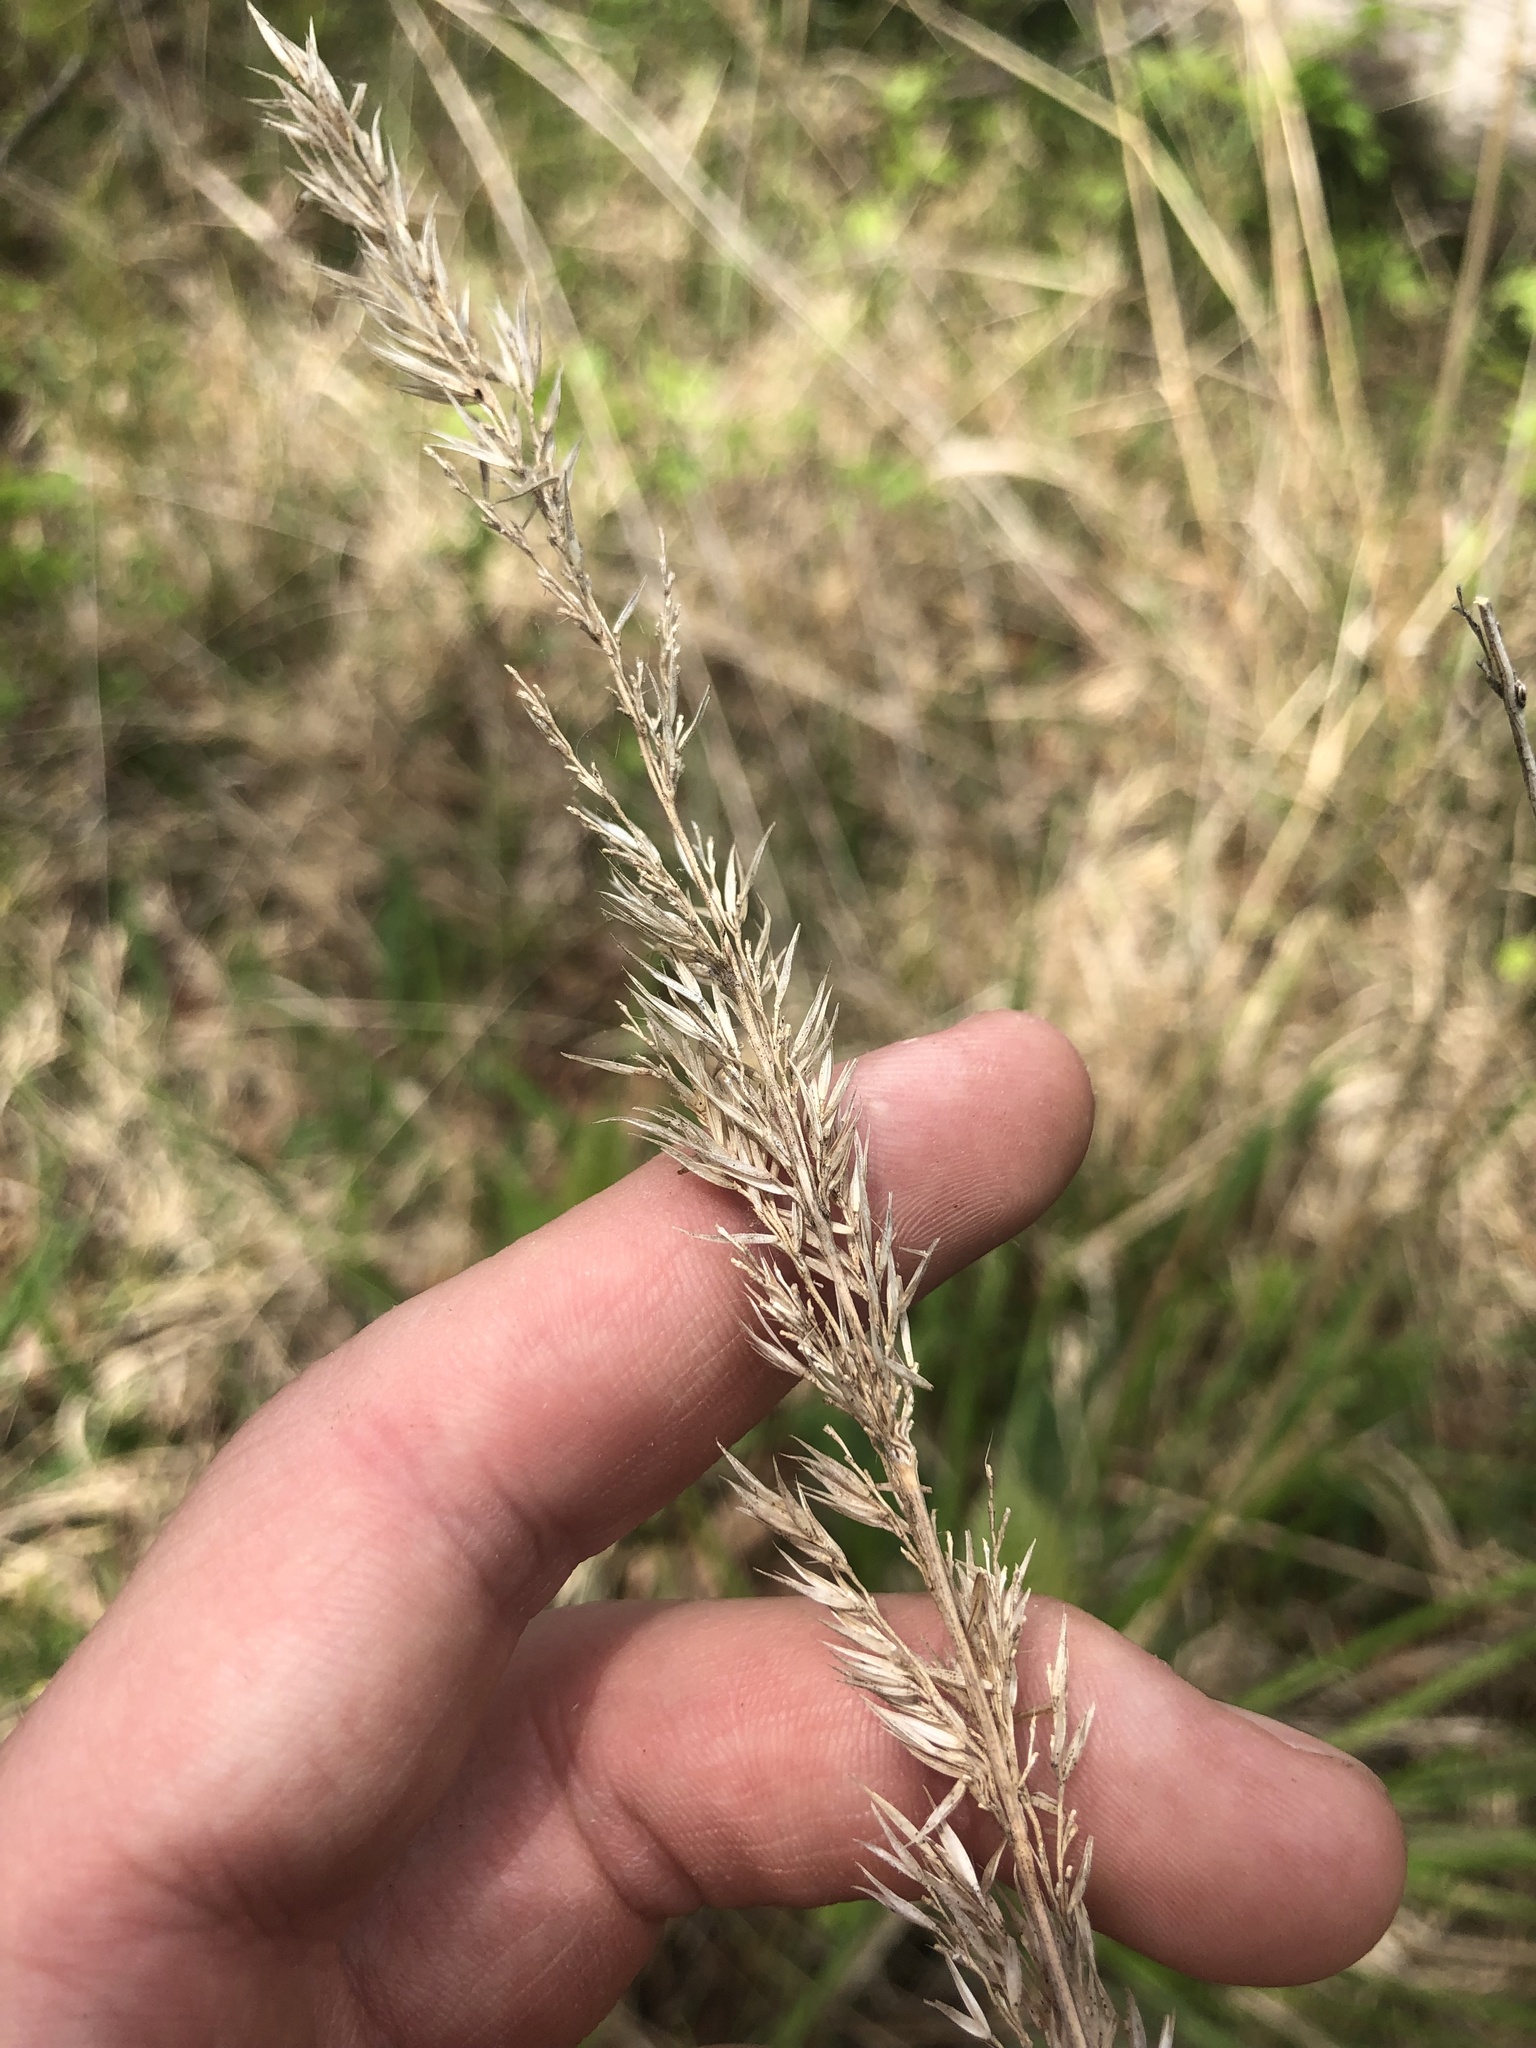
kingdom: Plantae
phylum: Tracheophyta
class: Liliopsida
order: Poales
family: Poaceae
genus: Greeneochloa
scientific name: Greeneochloa coarctata
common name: Small reedgrass
